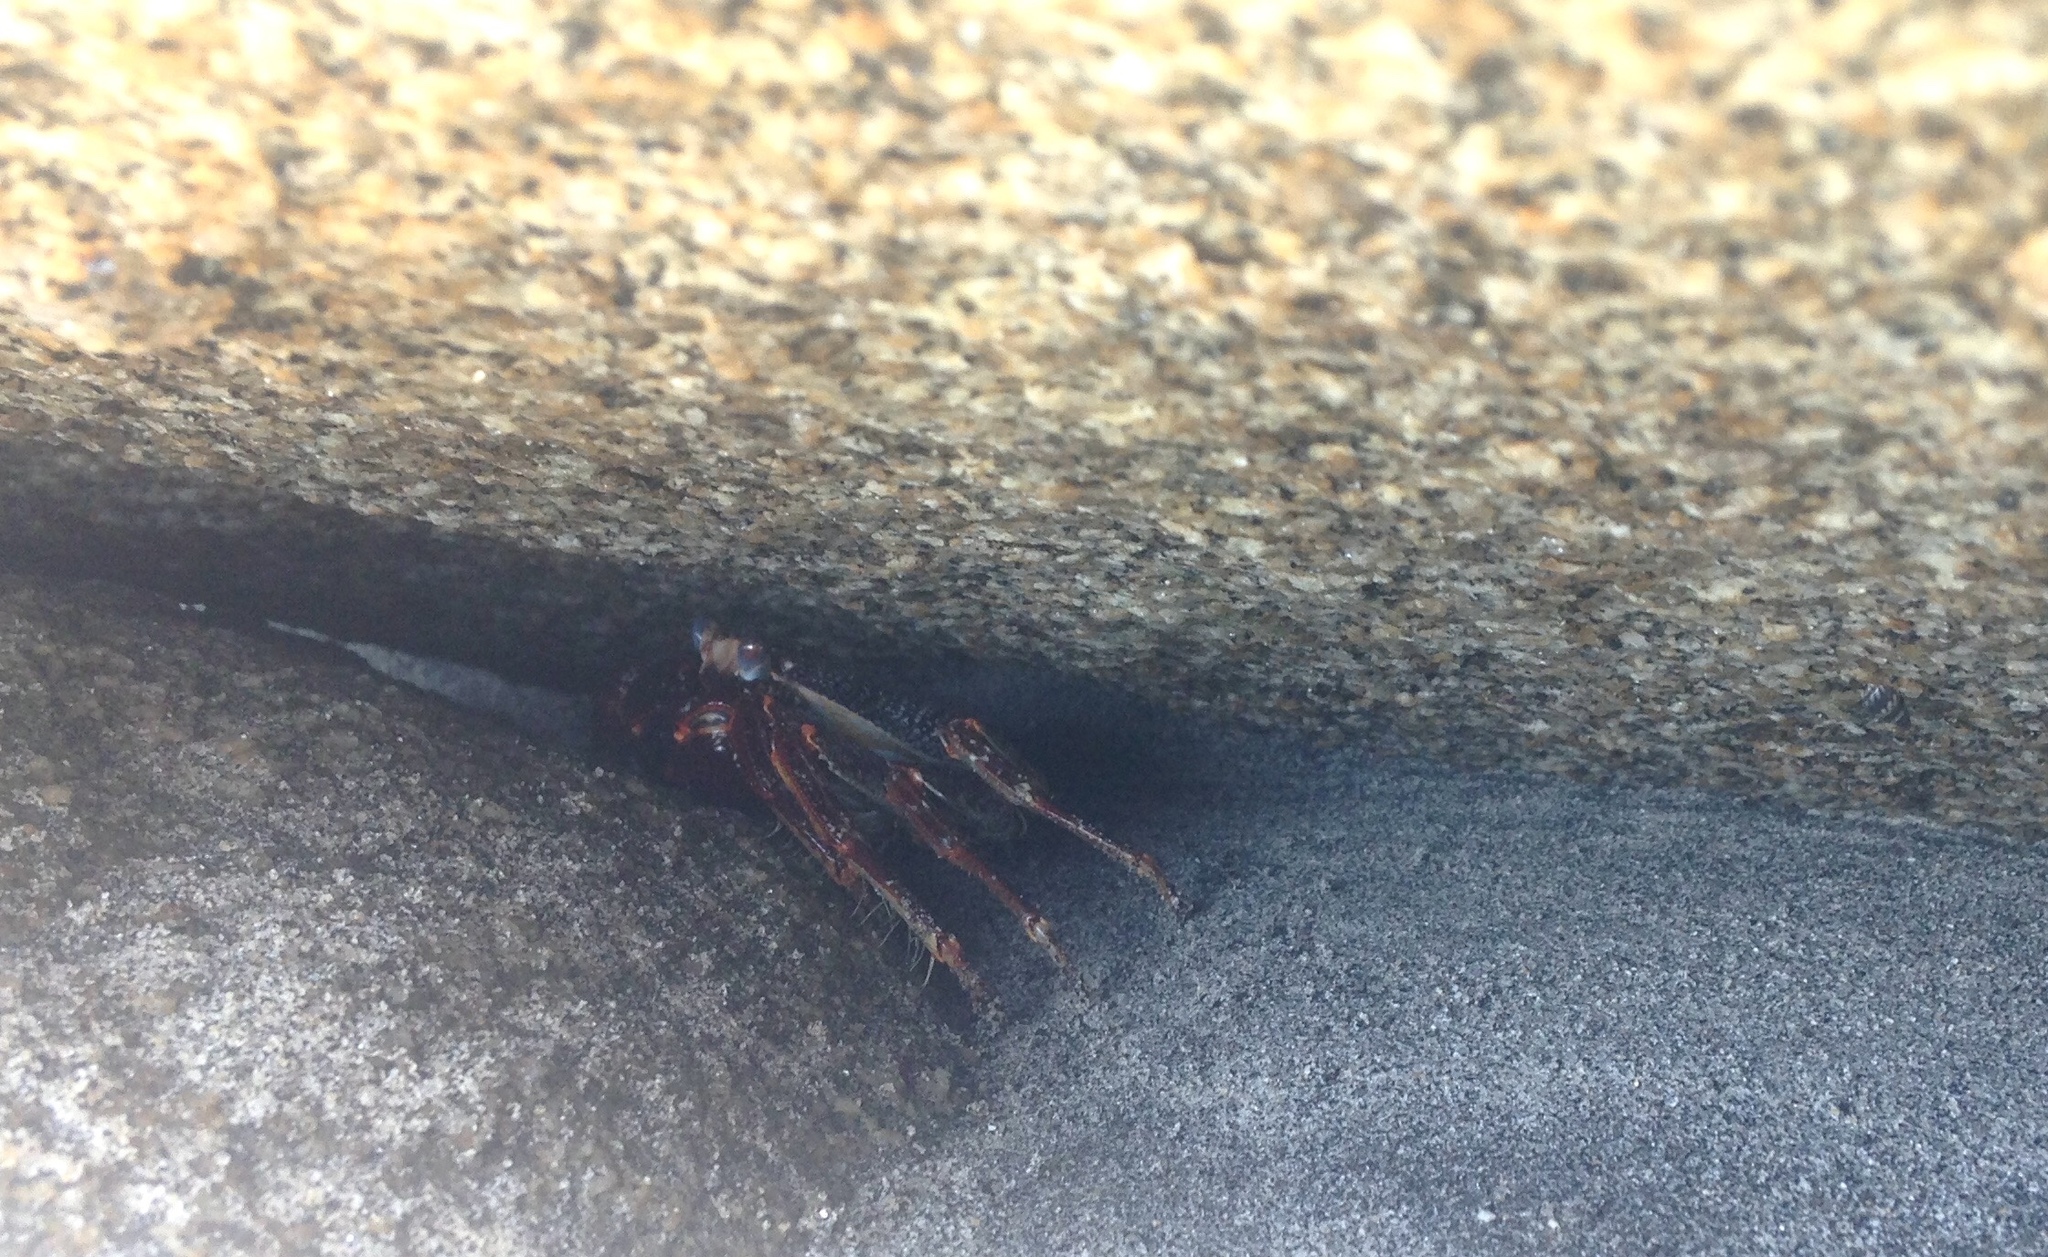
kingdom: Animalia
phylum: Arthropoda
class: Malacostraca
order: Decapoda
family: Grapsidae
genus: Grapsus
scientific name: Grapsus grapsus
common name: Sally lightfoot
